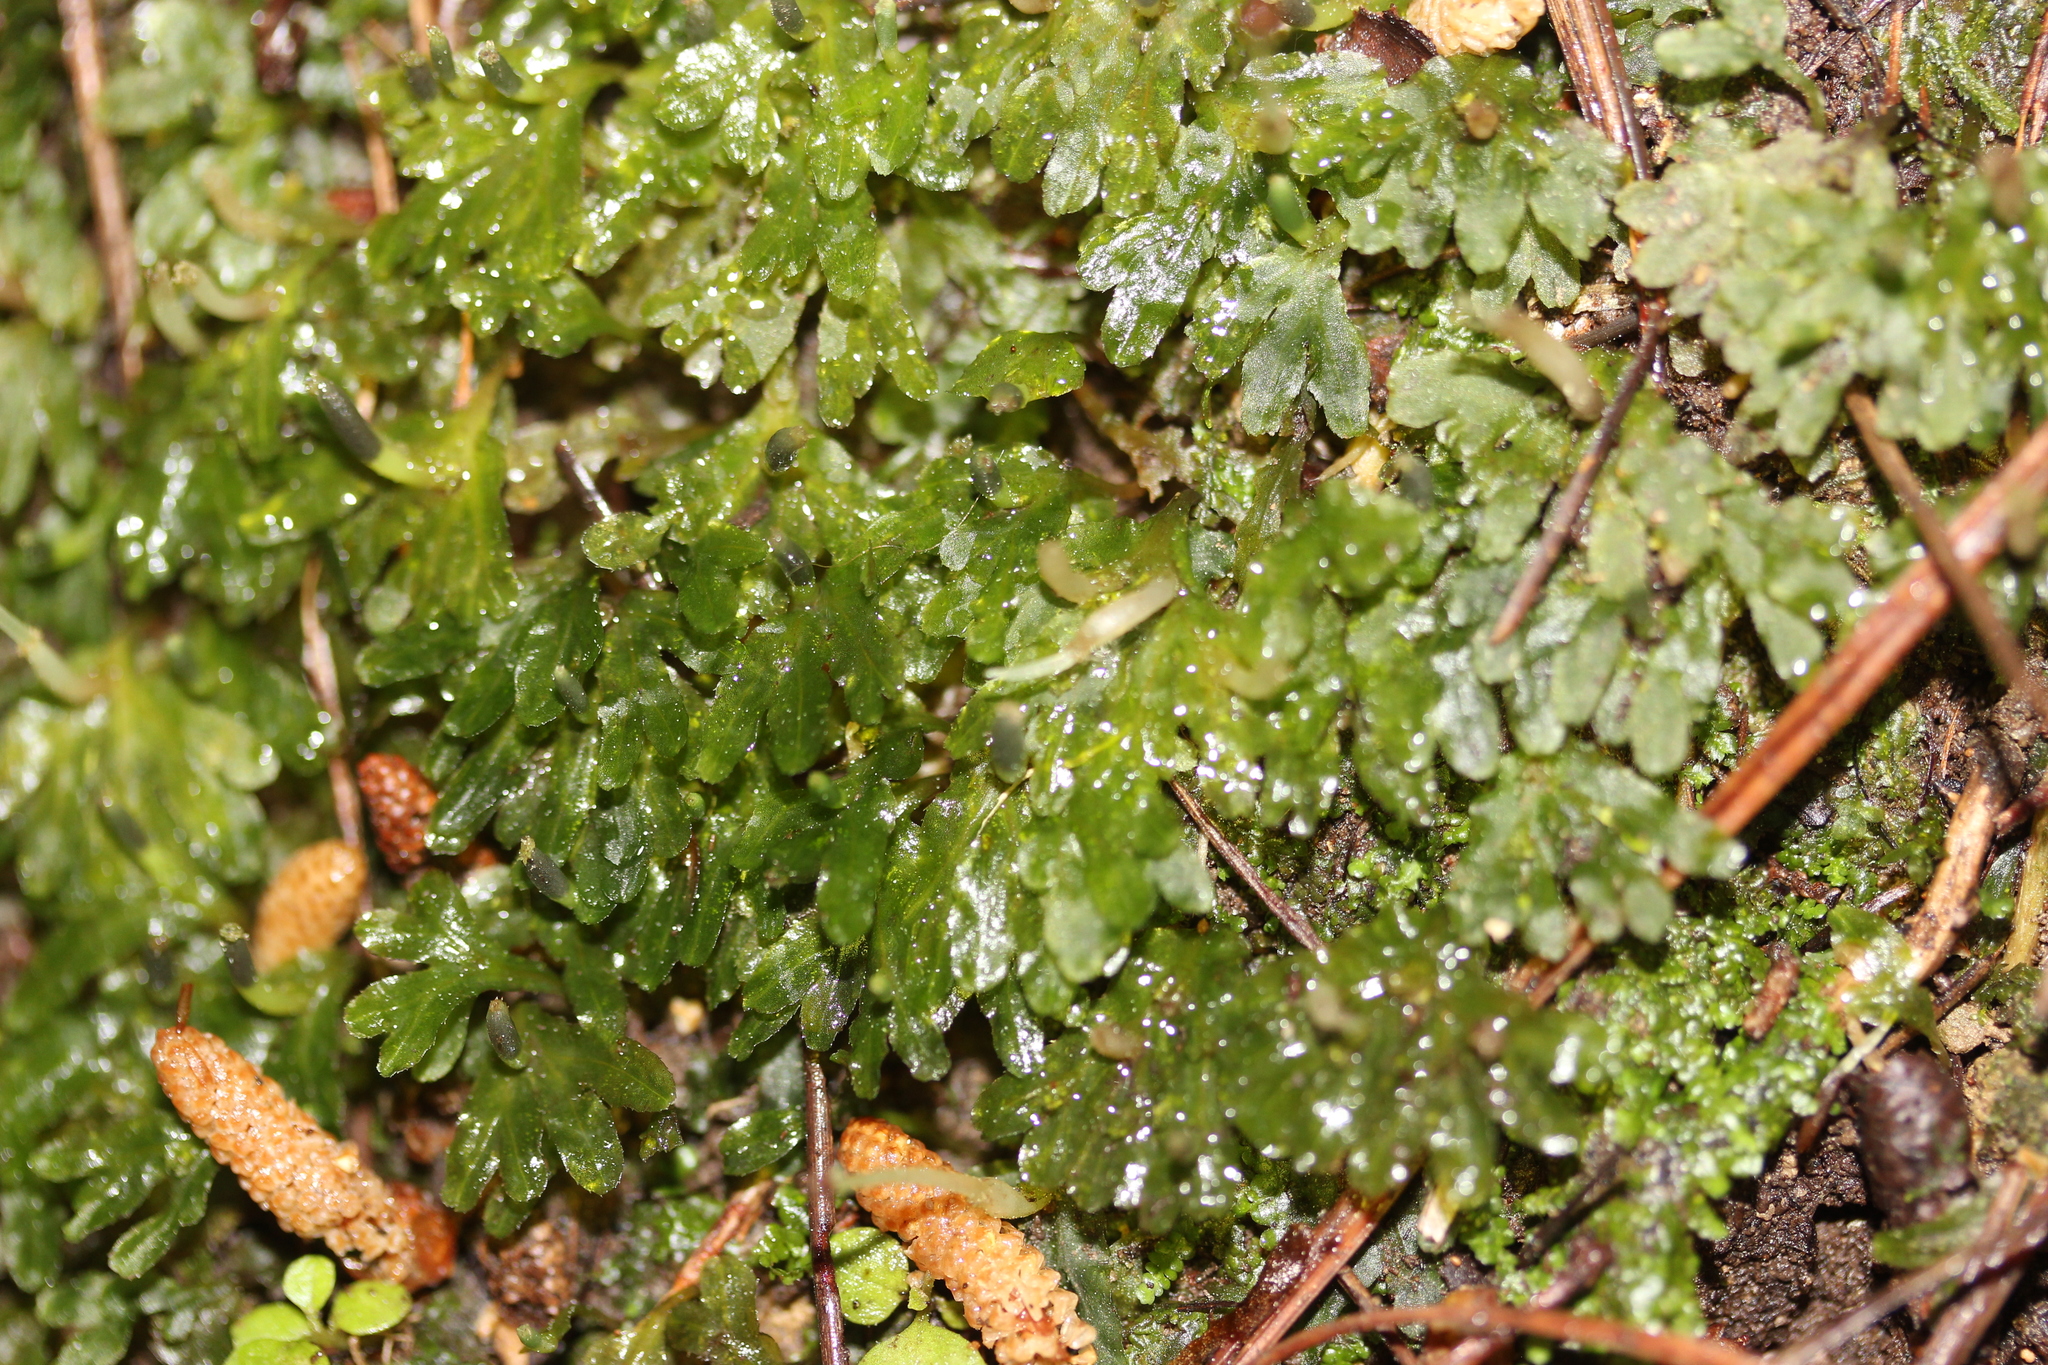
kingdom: Plantae
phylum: Marchantiophyta
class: Jungermanniopsida
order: Pallaviciniales
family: Pallaviciniaceae
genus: Symphyogyna
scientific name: Symphyogyna hymenophyllum
